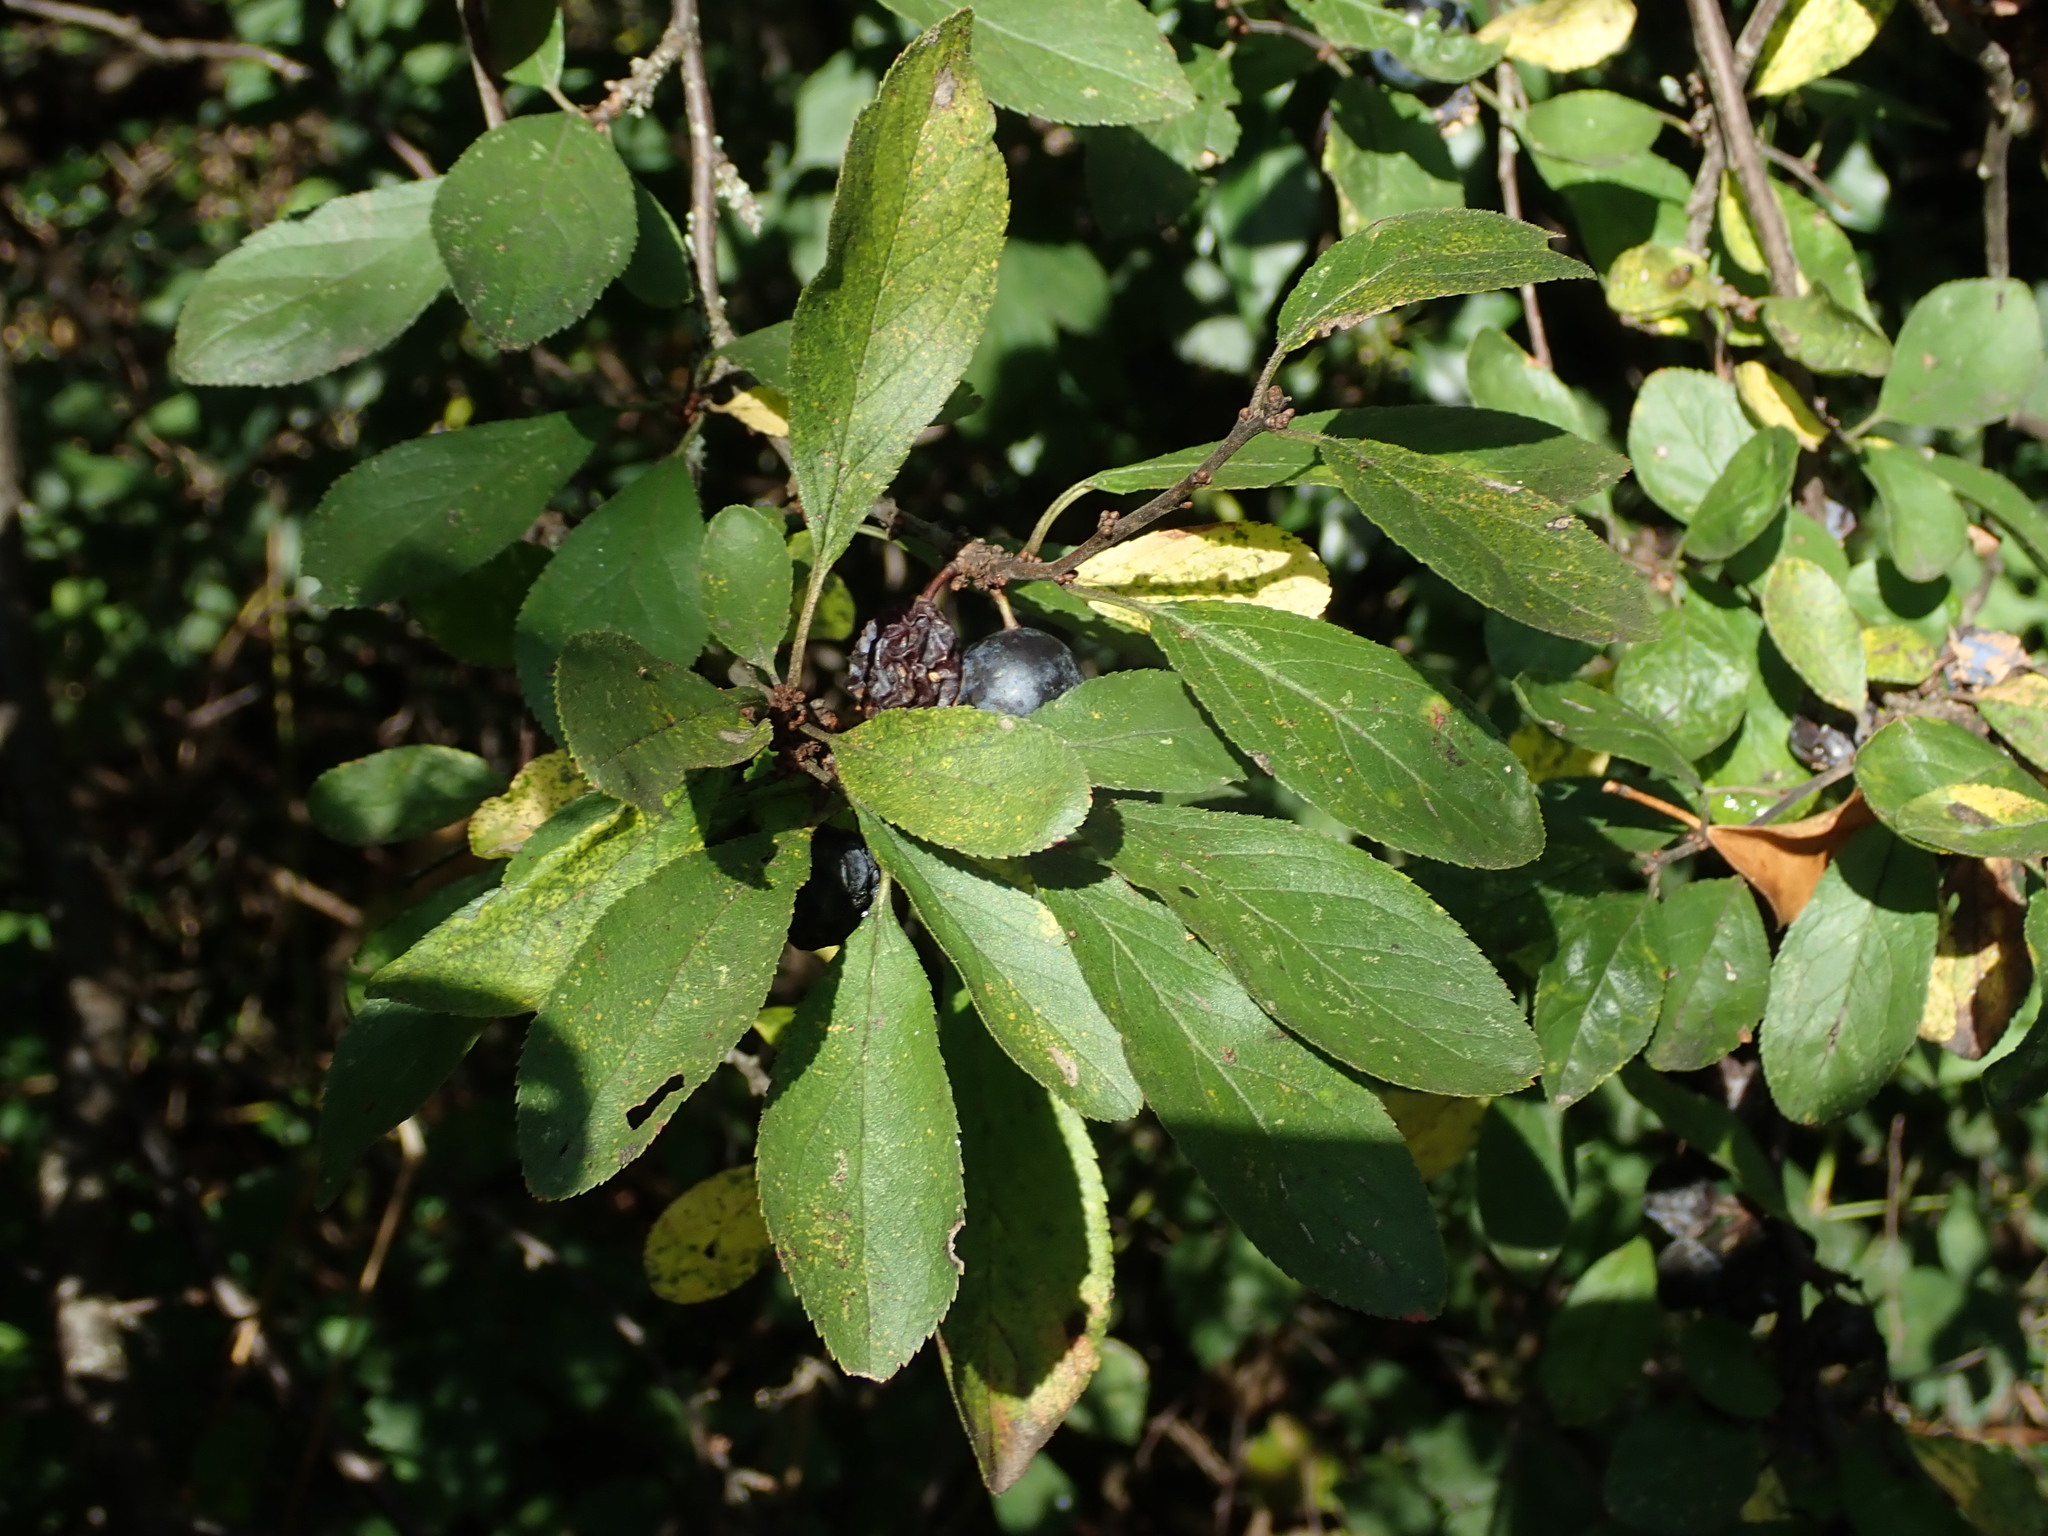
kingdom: Plantae
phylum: Tracheophyta
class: Magnoliopsida
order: Rosales
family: Rosaceae
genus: Prunus
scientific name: Prunus spinosa
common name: Blackthorn
